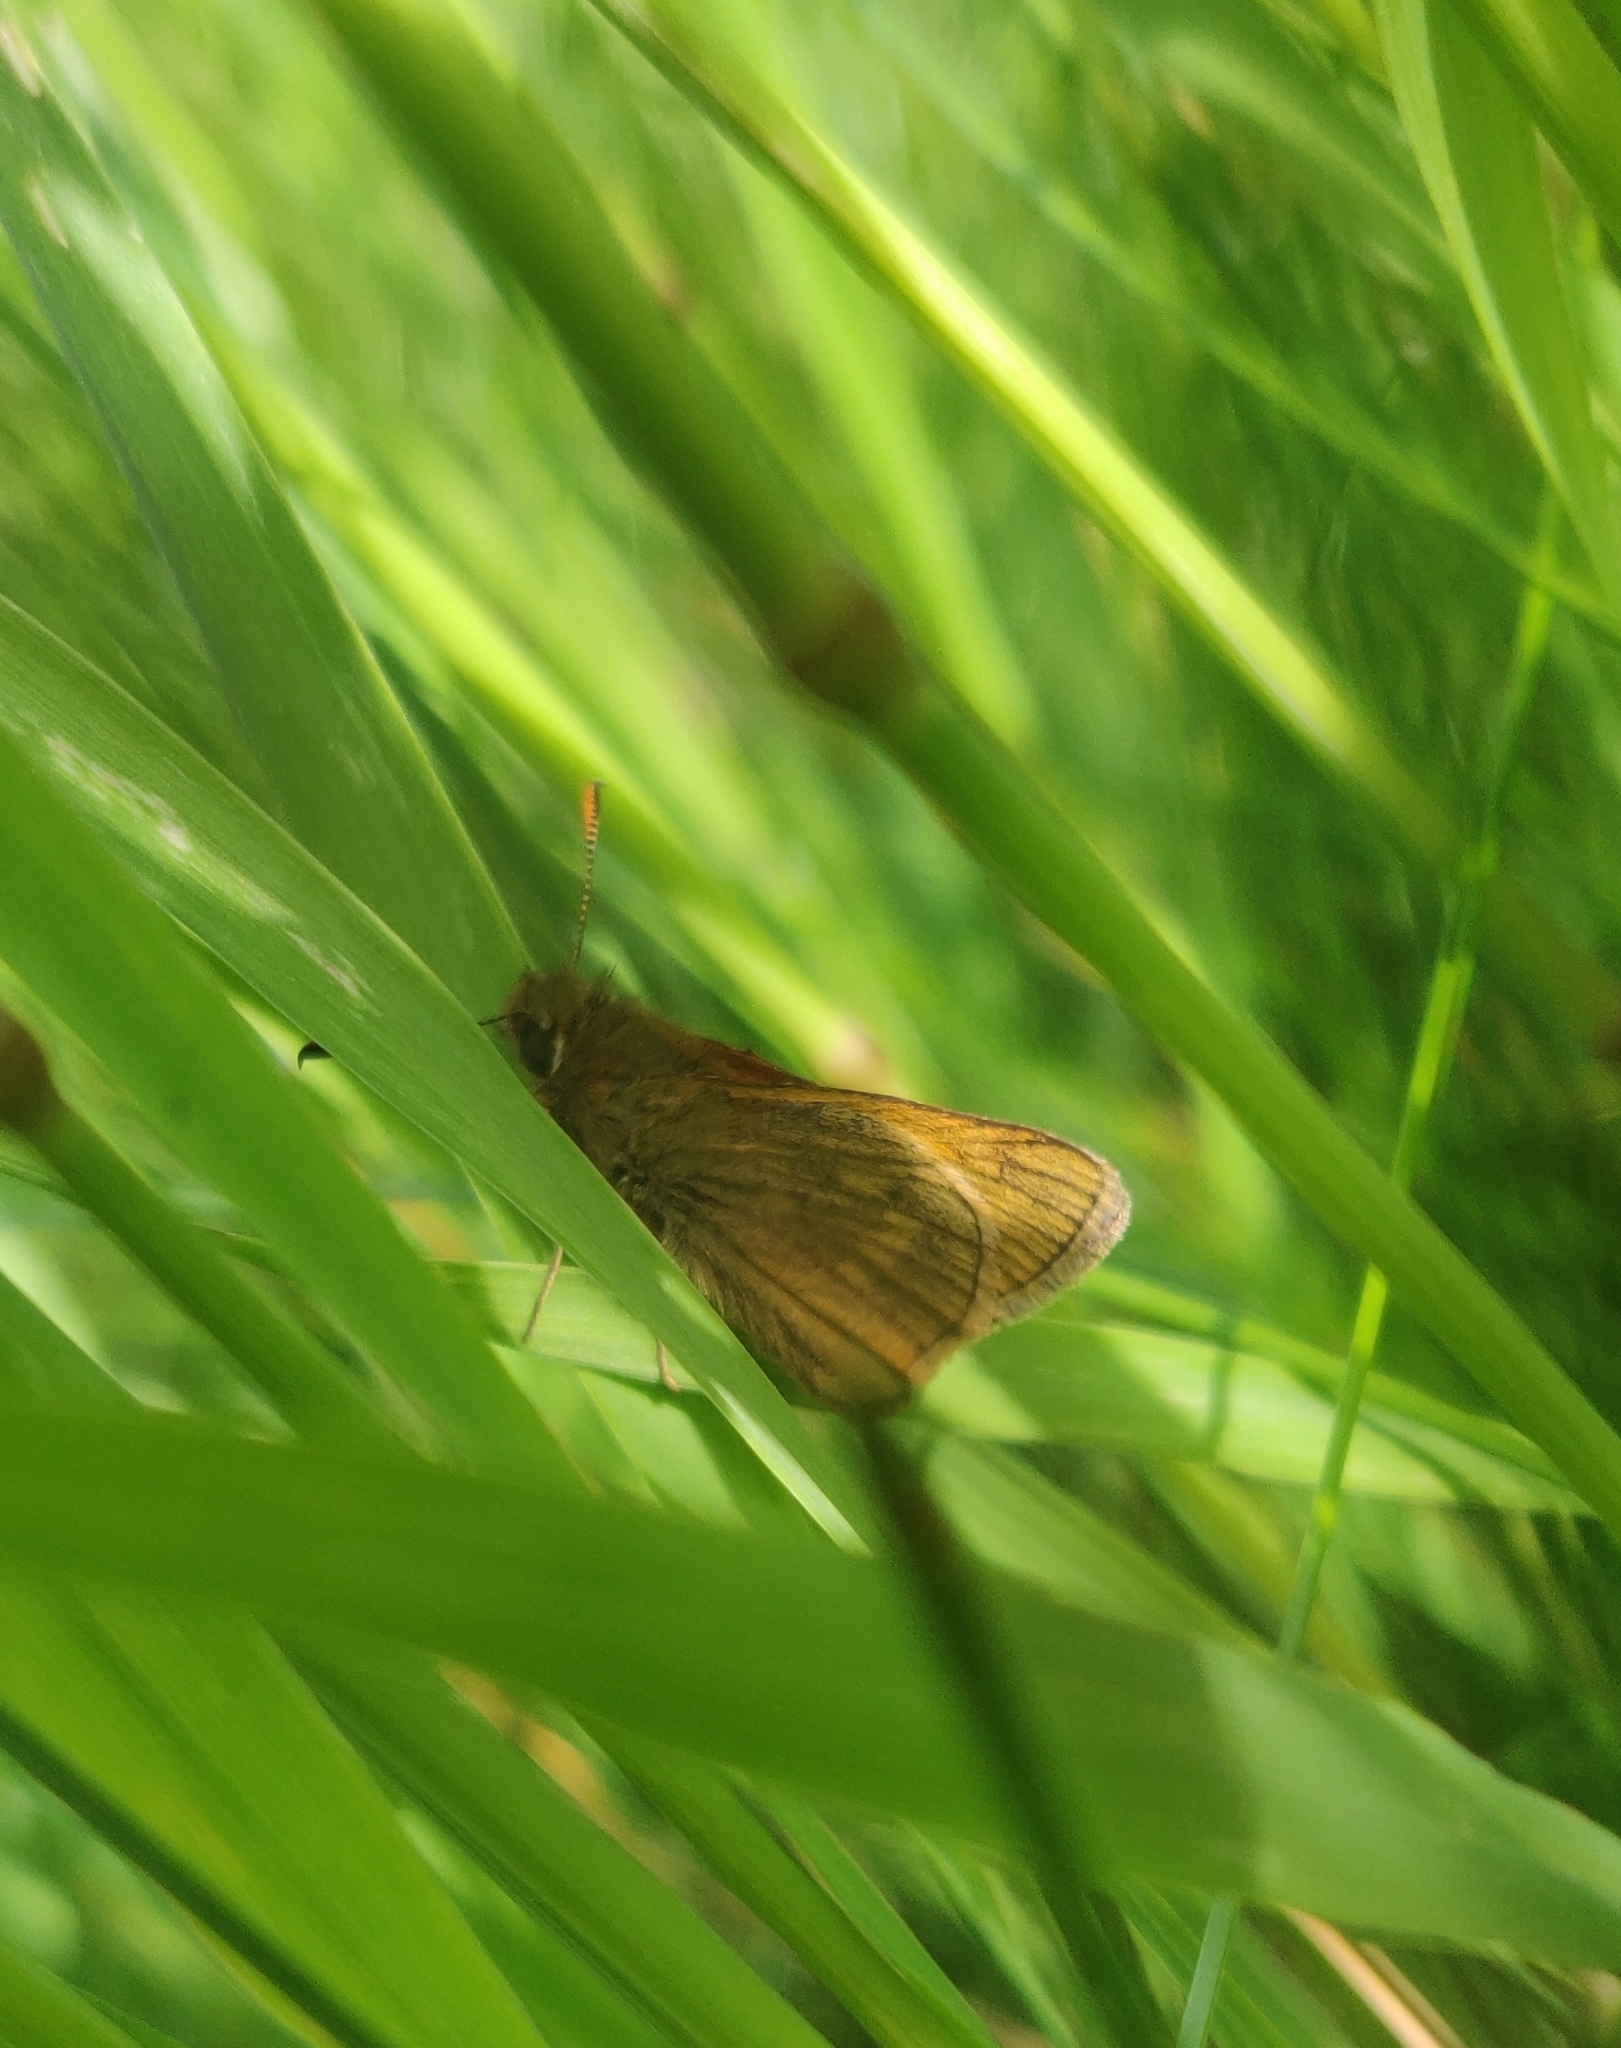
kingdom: Animalia
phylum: Arthropoda
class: Insecta
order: Lepidoptera
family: Hesperiidae
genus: Ochlodes
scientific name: Ochlodes venata
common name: Large skipper
